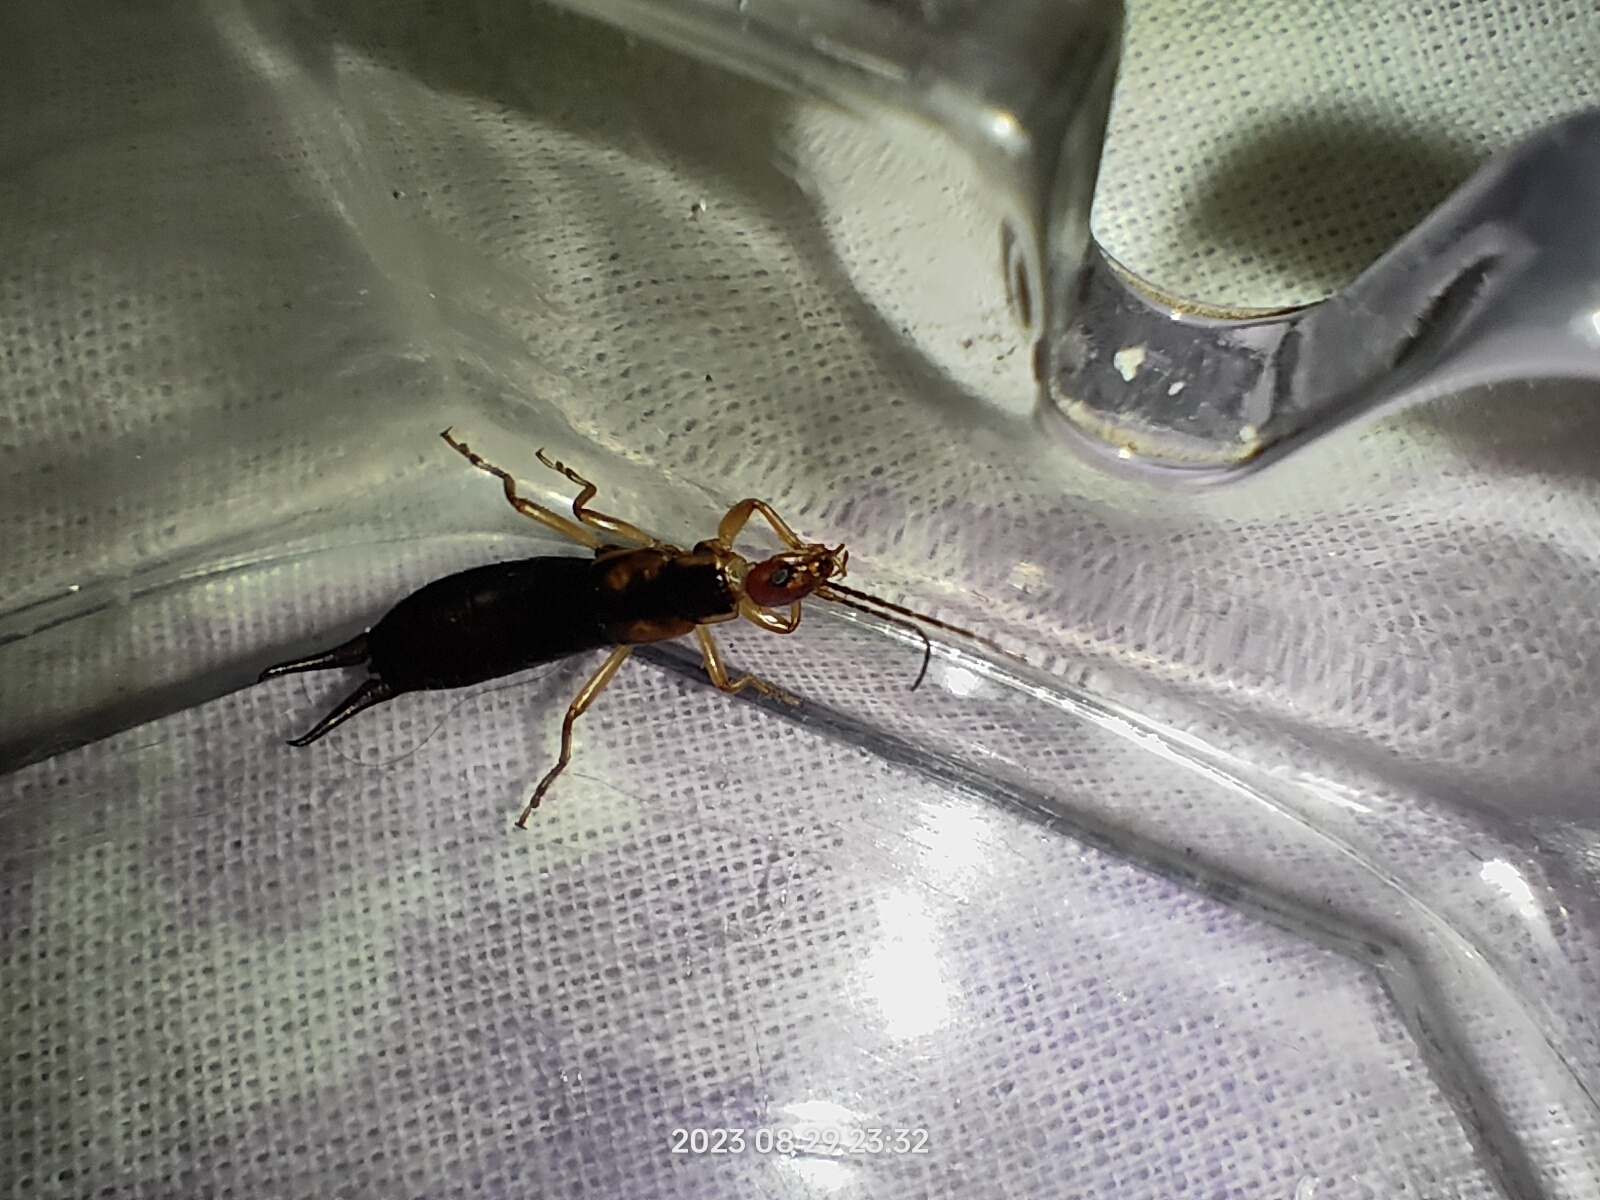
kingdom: Animalia
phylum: Arthropoda
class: Insecta
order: Dermaptera
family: Forficulidae
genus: Forficula
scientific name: Forficula tomis
